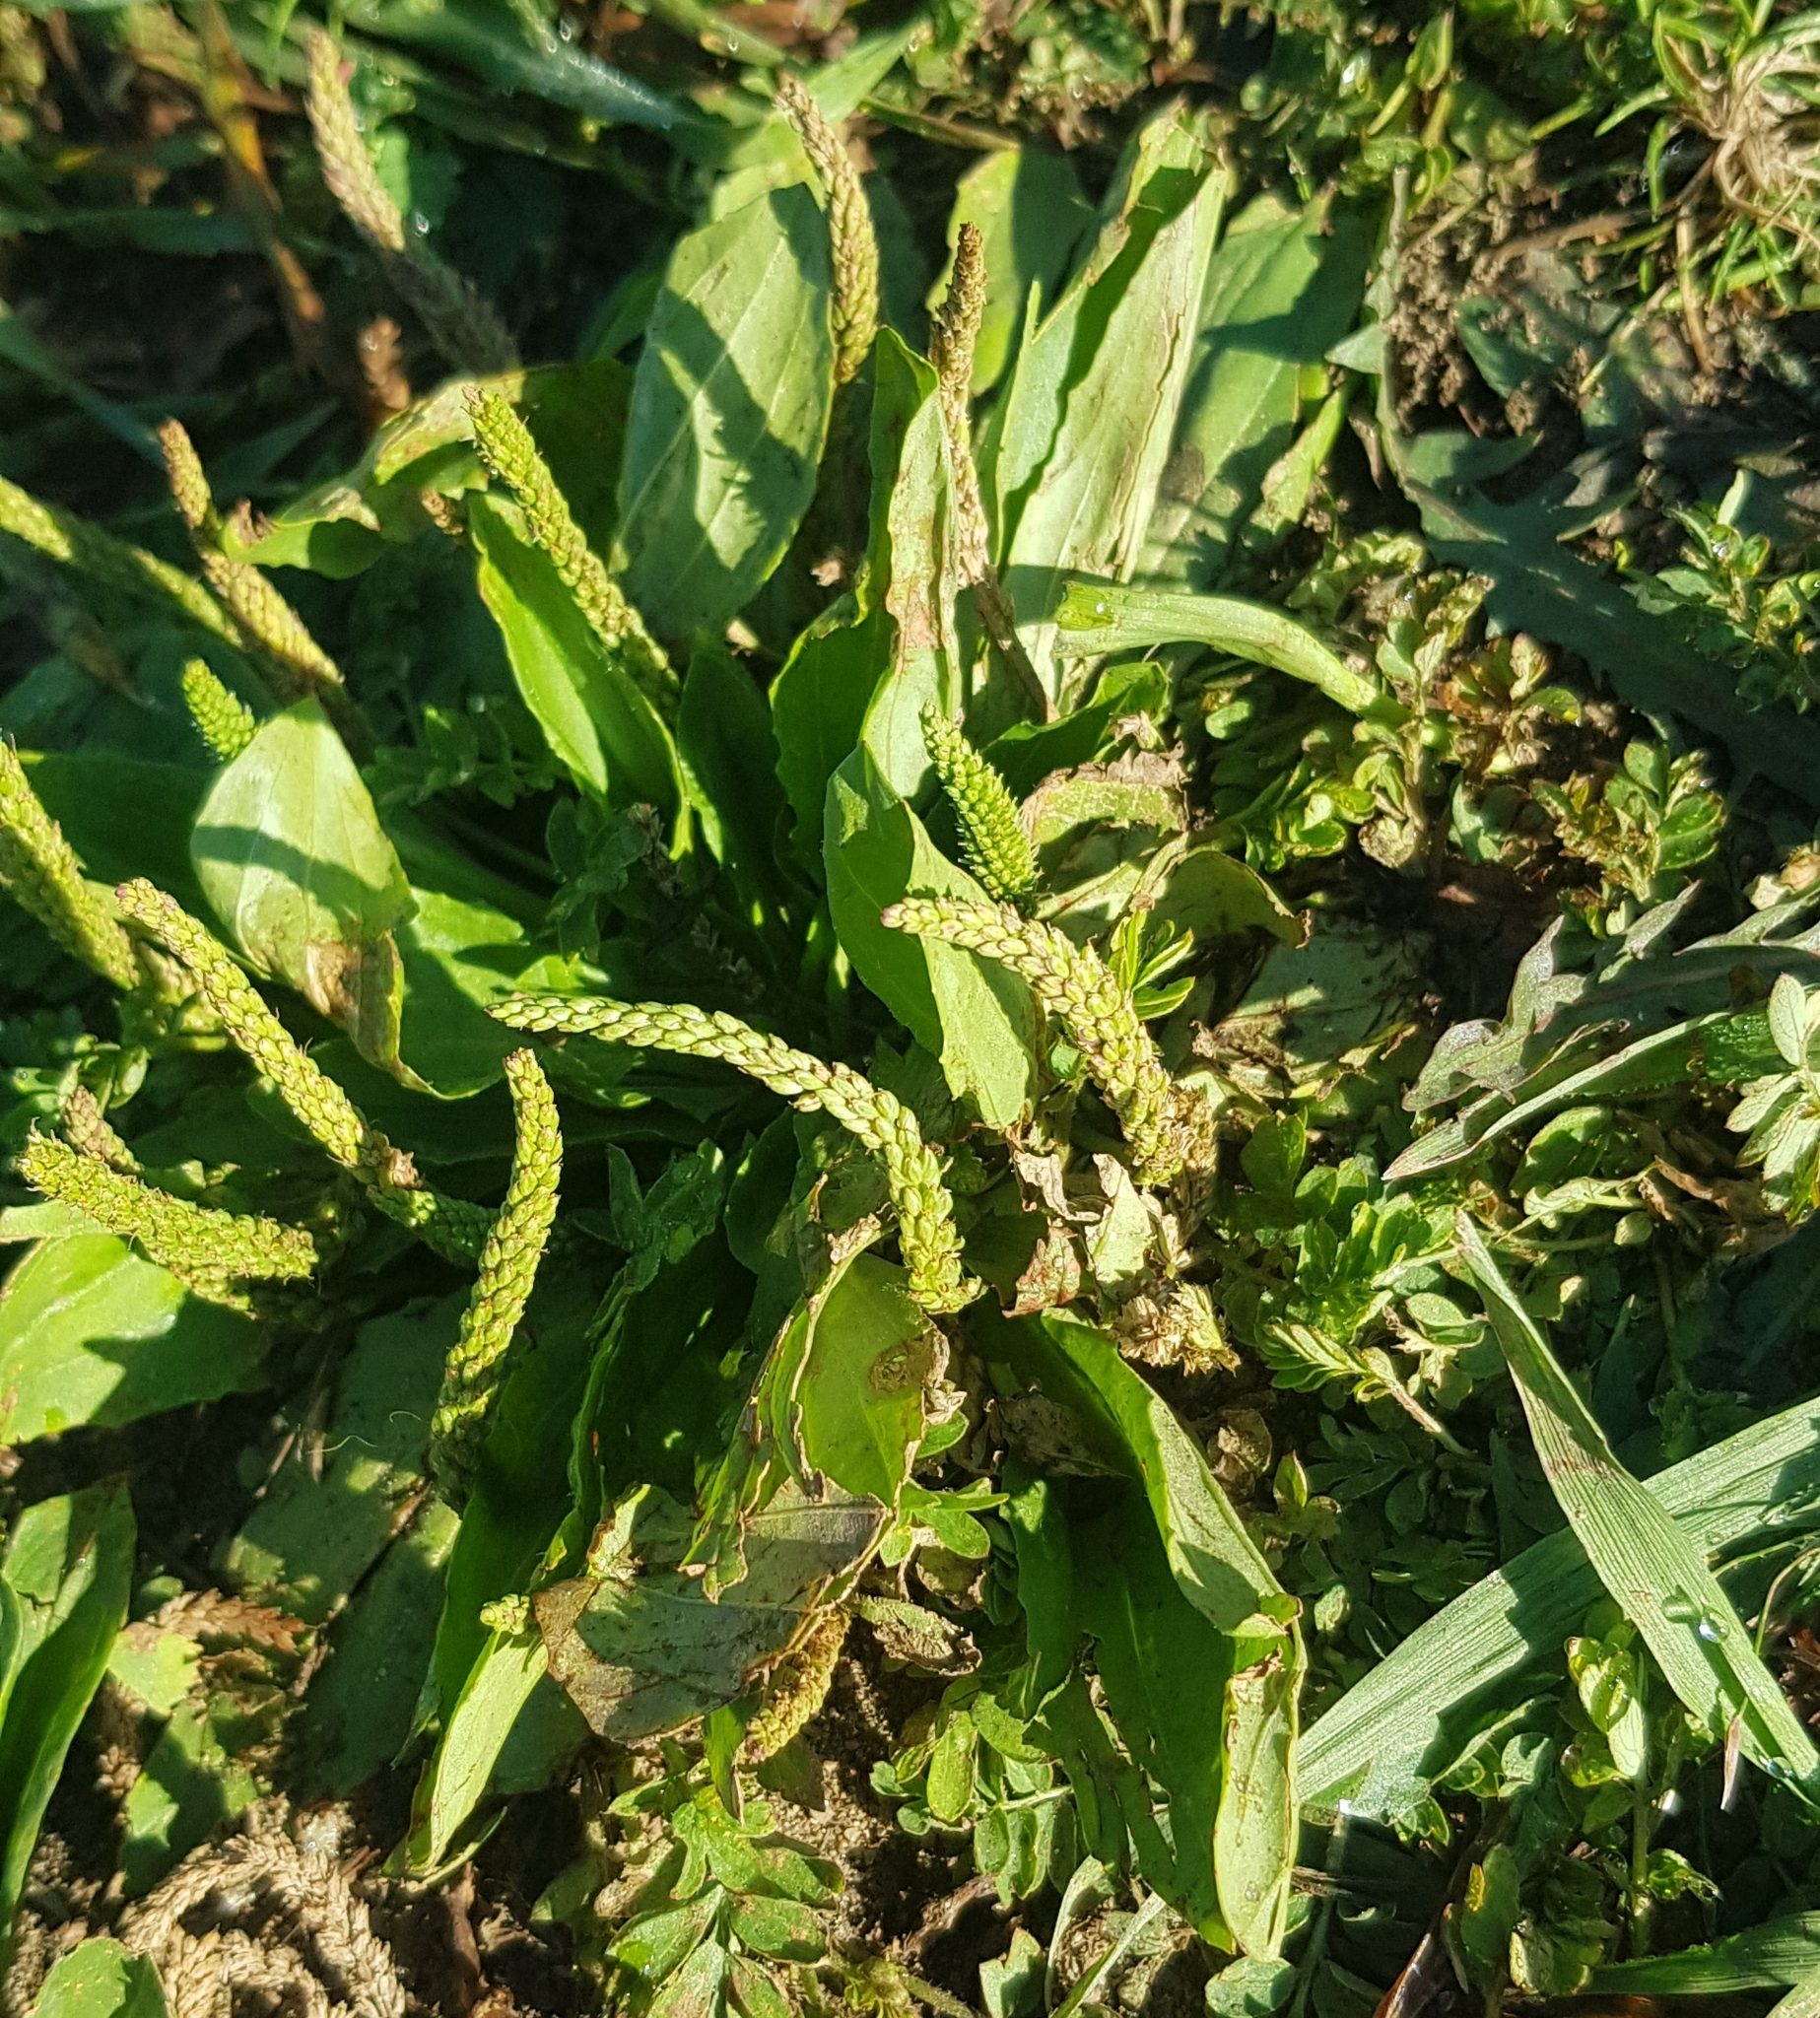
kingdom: Plantae
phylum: Tracheophyta
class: Magnoliopsida
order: Lamiales
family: Plantaginaceae
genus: Plantago
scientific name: Plantago depressa
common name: Depressed plantain
